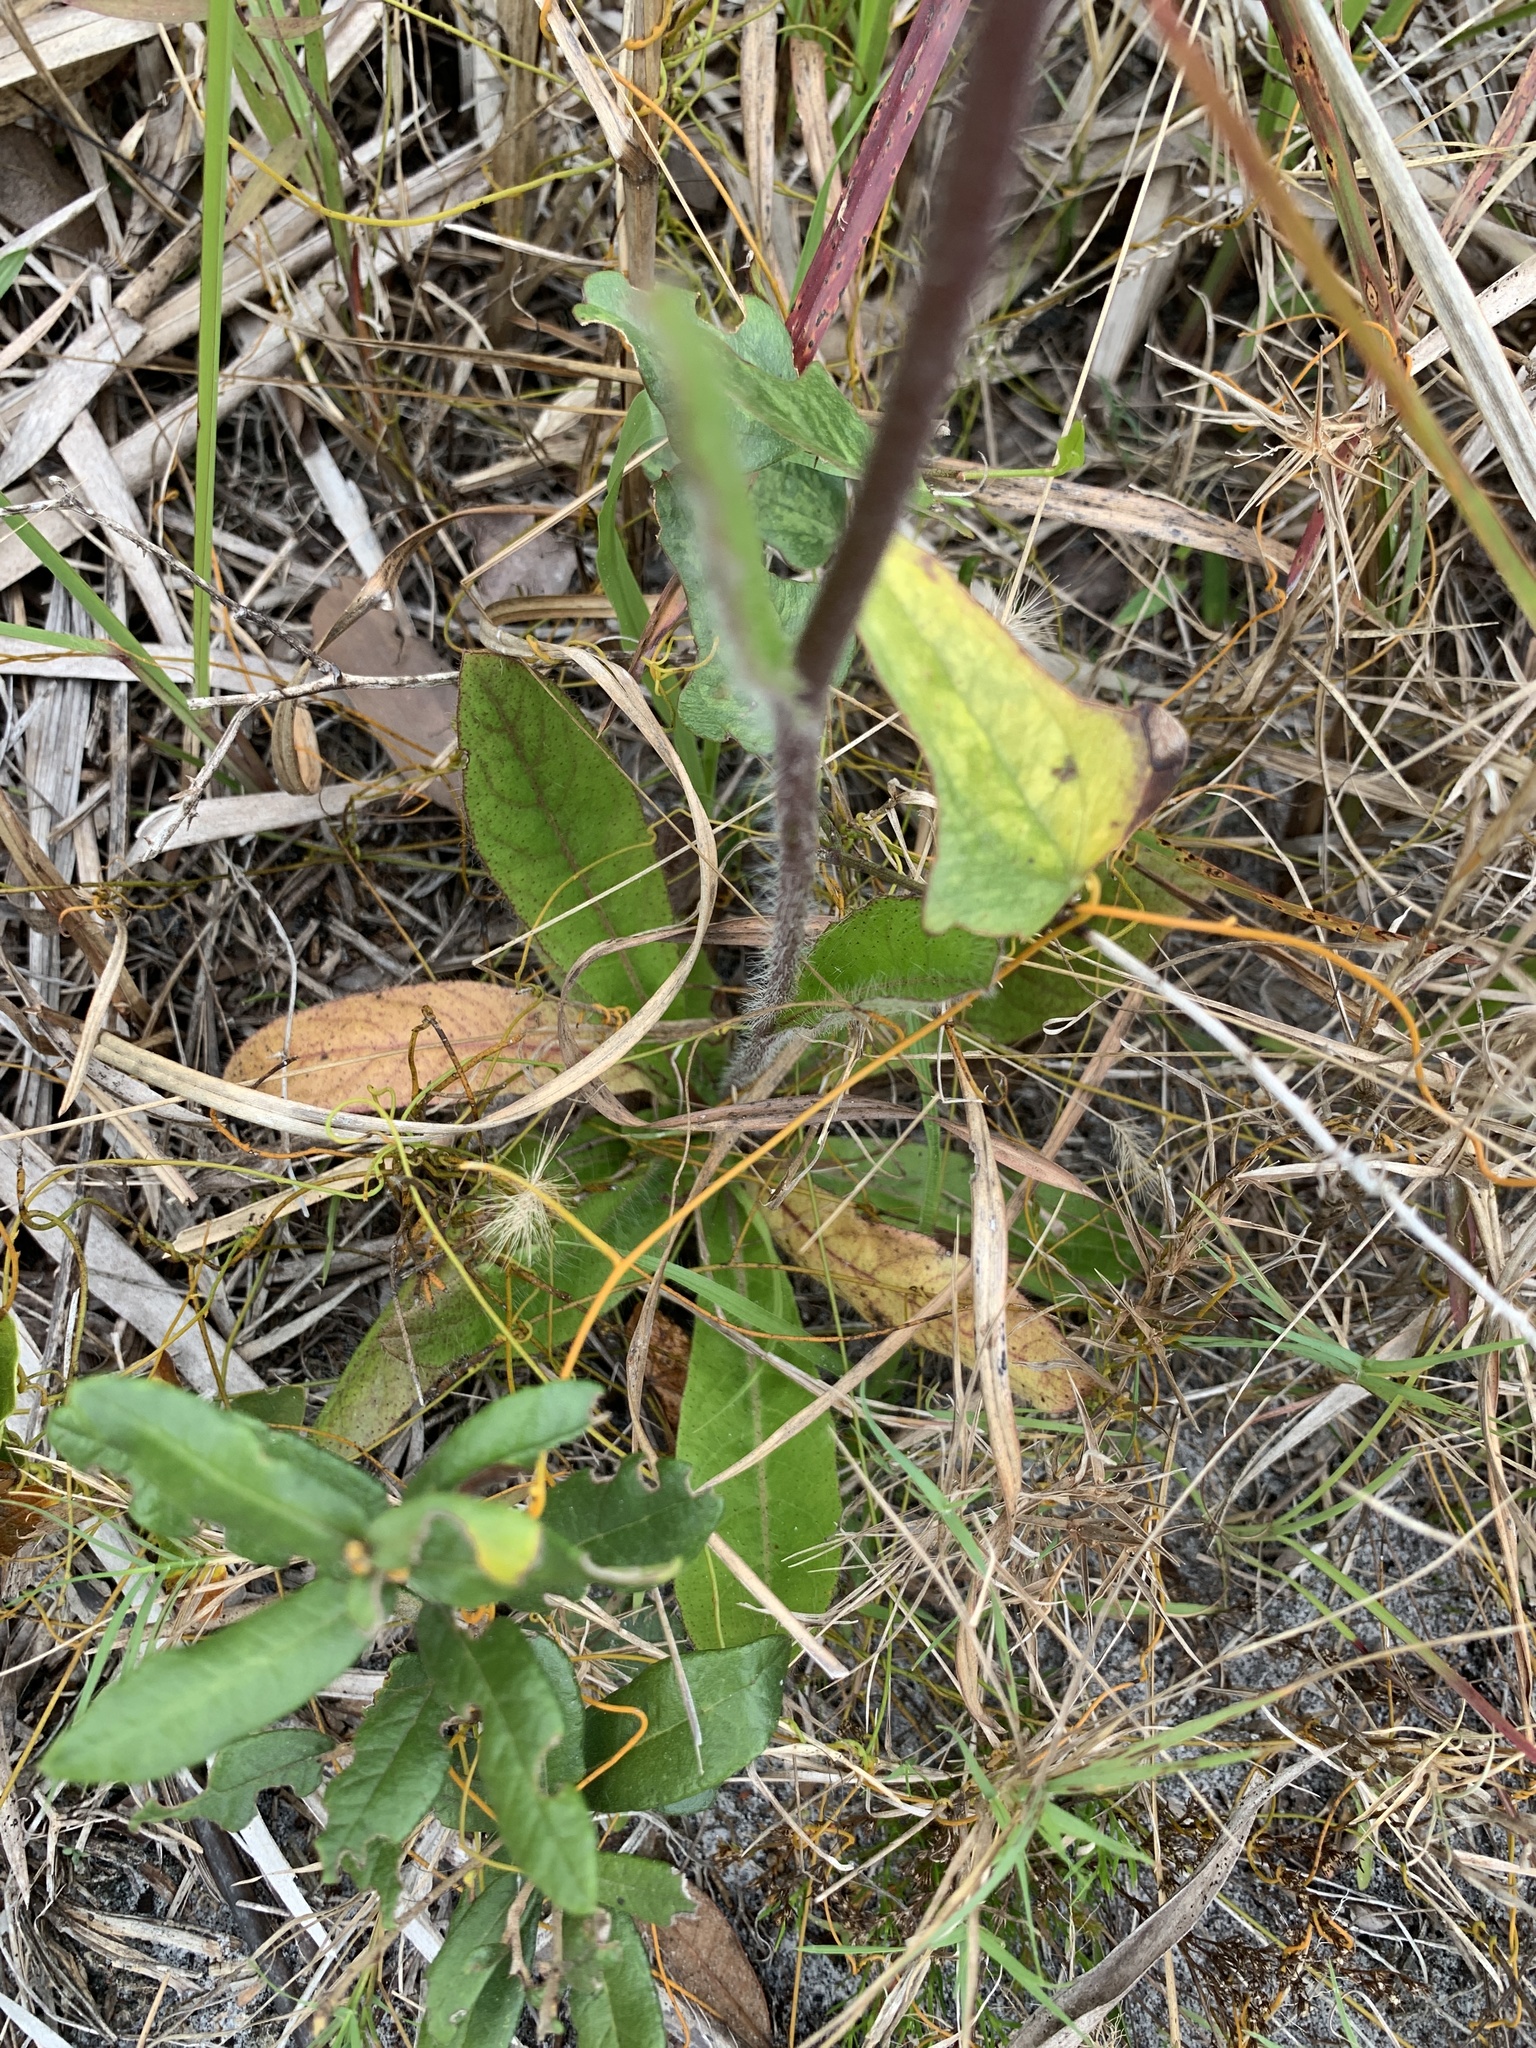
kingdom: Plantae
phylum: Tracheophyta
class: Magnoliopsida
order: Asterales
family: Asteraceae
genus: Hieracium
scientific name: Hieracium gronovii
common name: Beaked hawkweed
